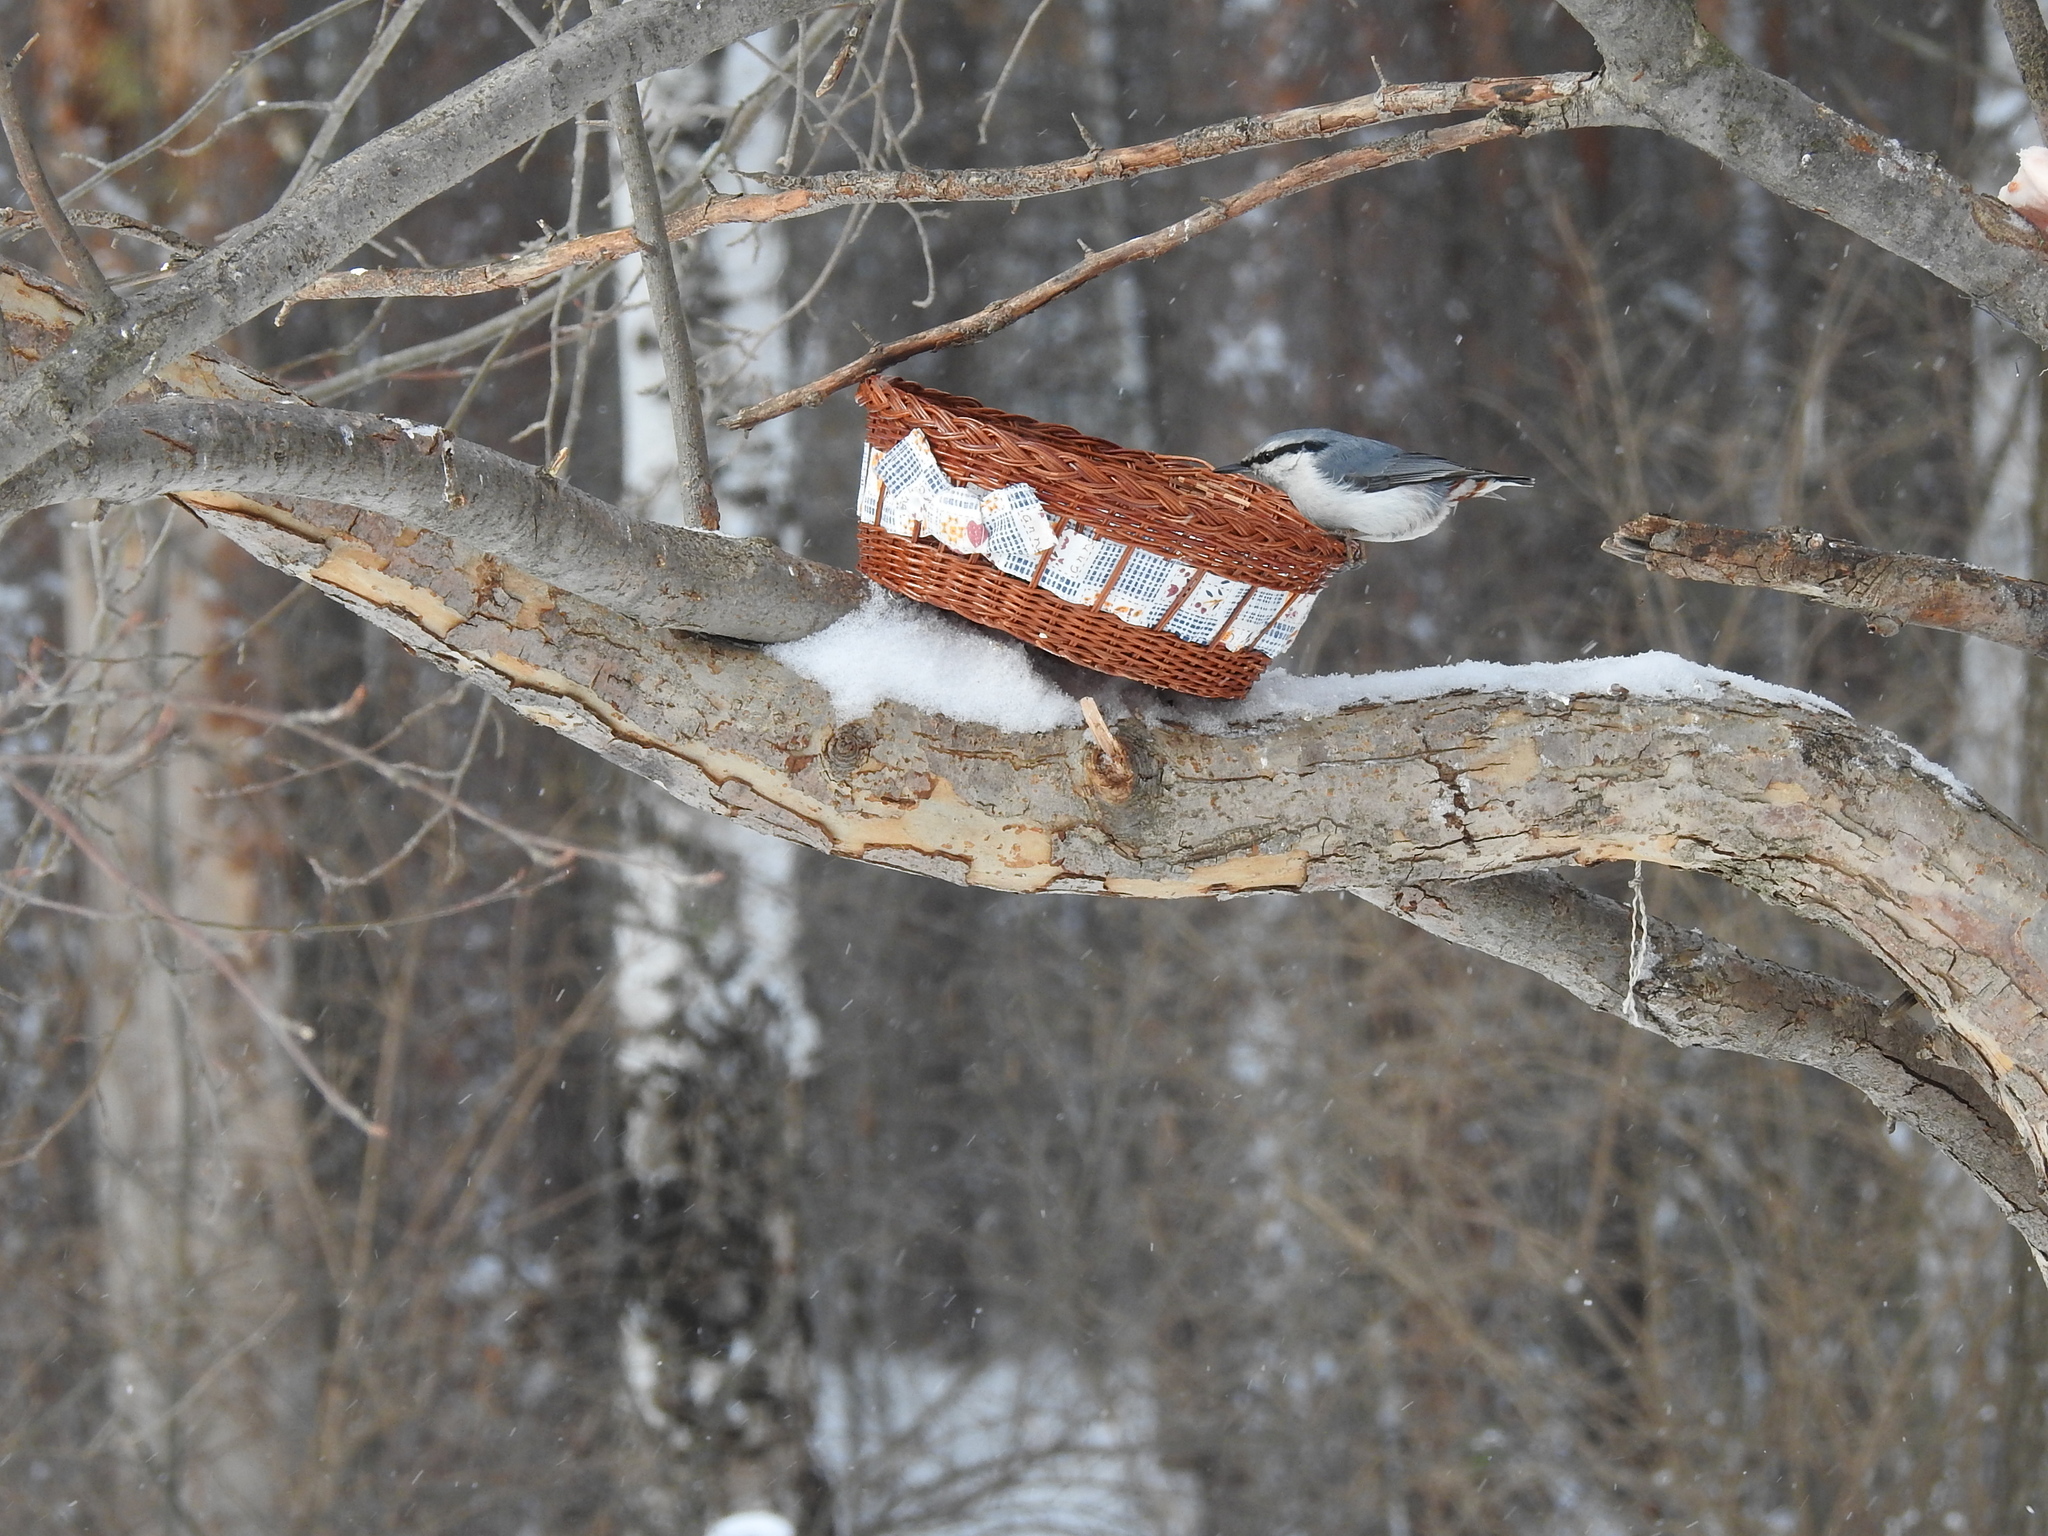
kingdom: Animalia
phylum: Chordata
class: Aves
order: Passeriformes
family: Sittidae
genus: Sitta
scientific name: Sitta europaea
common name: Eurasian nuthatch
